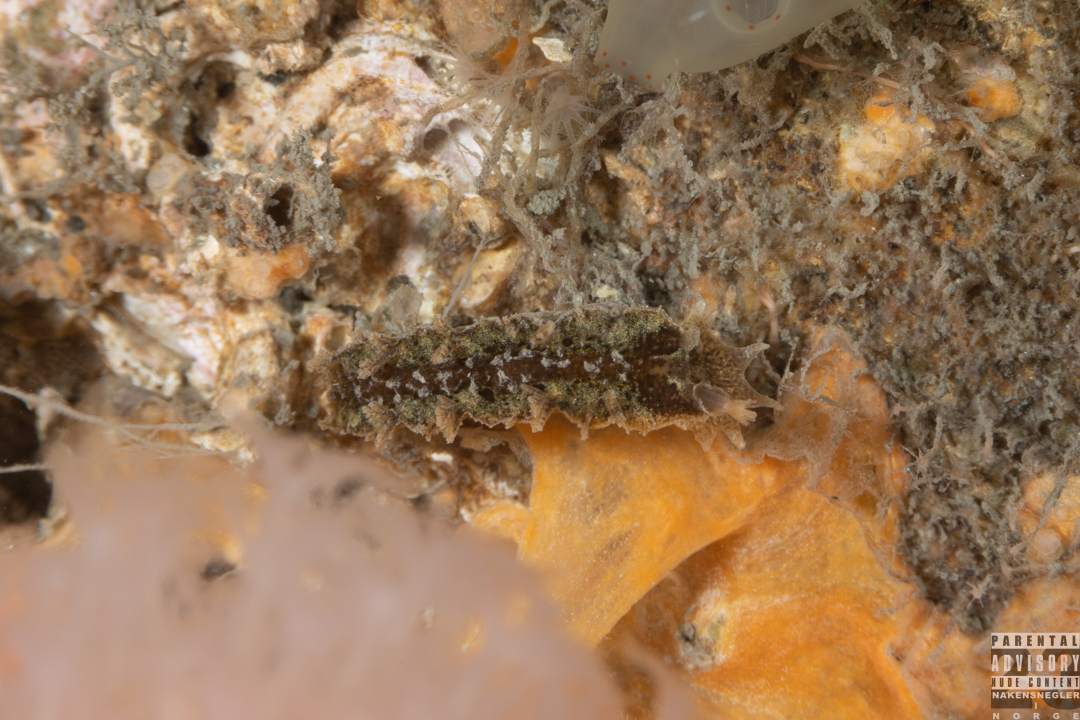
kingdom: Animalia
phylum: Mollusca
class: Gastropoda
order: Nudibranchia
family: Tritoniidae
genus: Duvaucelia
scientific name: Duvaucelia plebeia
